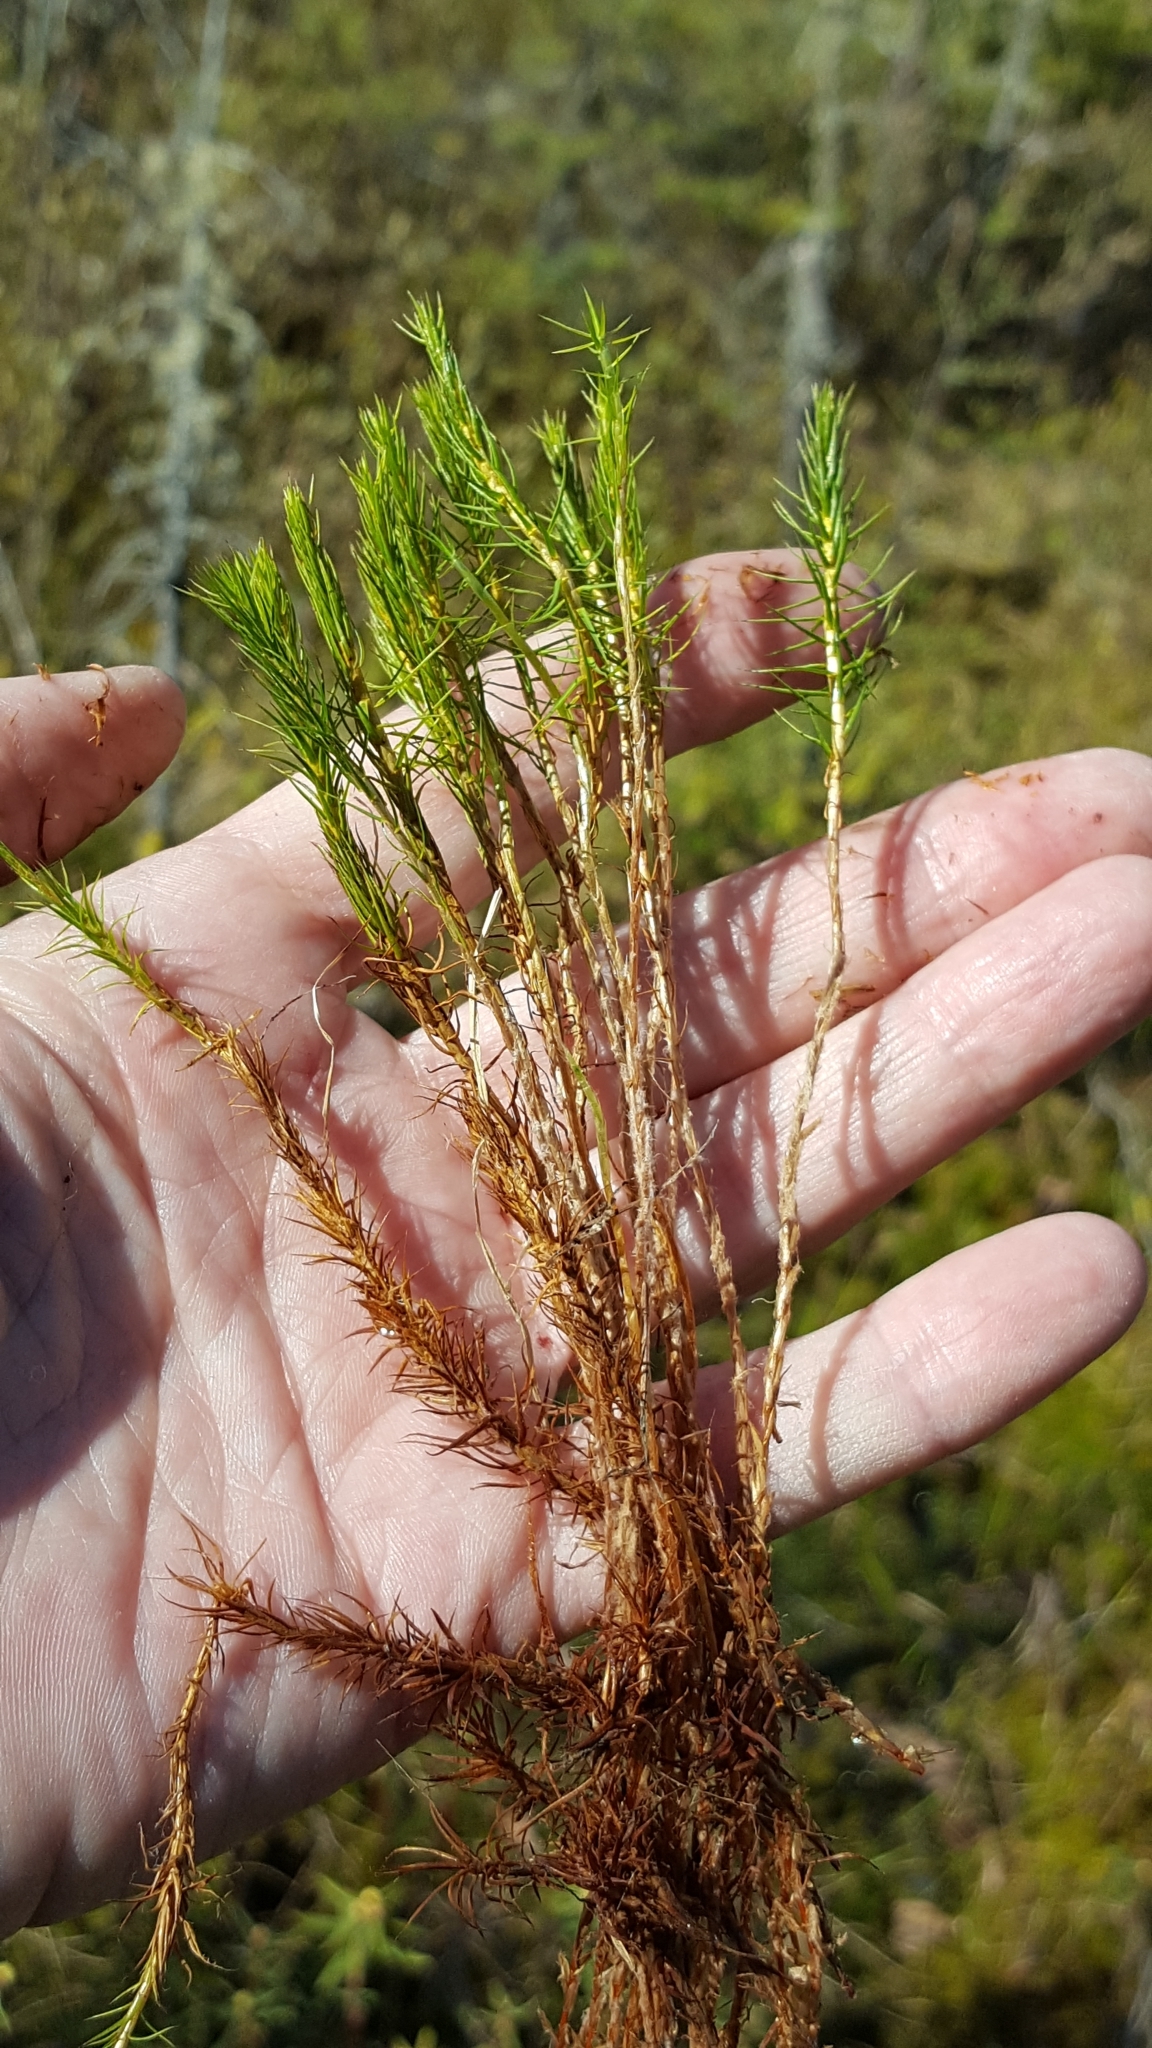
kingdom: Plantae
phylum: Bryophyta
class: Polytrichopsida
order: Polytrichales
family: Polytrichaceae
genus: Polytrichum
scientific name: Polytrichum strictum
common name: Bog haircap moss
